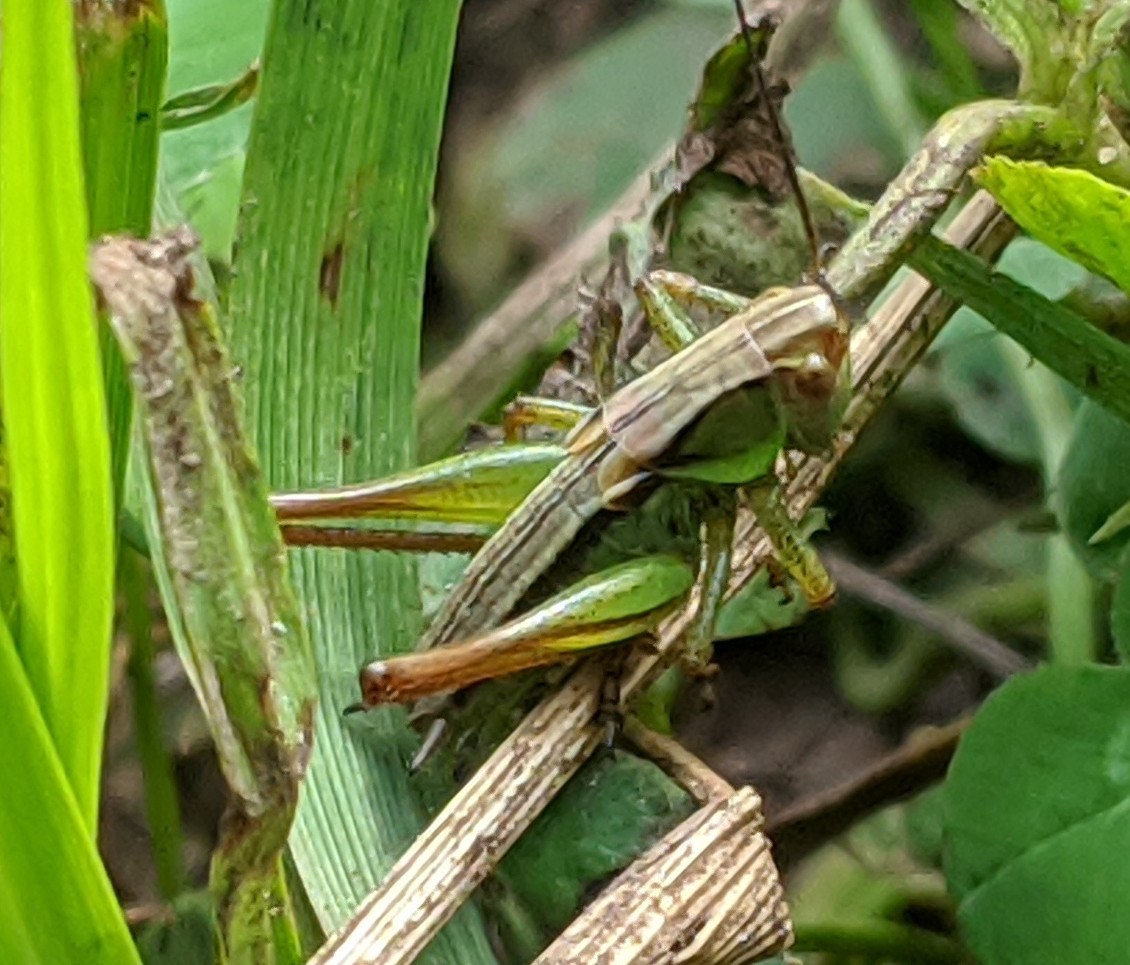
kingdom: Animalia
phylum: Arthropoda
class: Insecta
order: Orthoptera
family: Tettigoniidae
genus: Roeseliana
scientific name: Roeseliana roeselii
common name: Roesel's bush cricket
